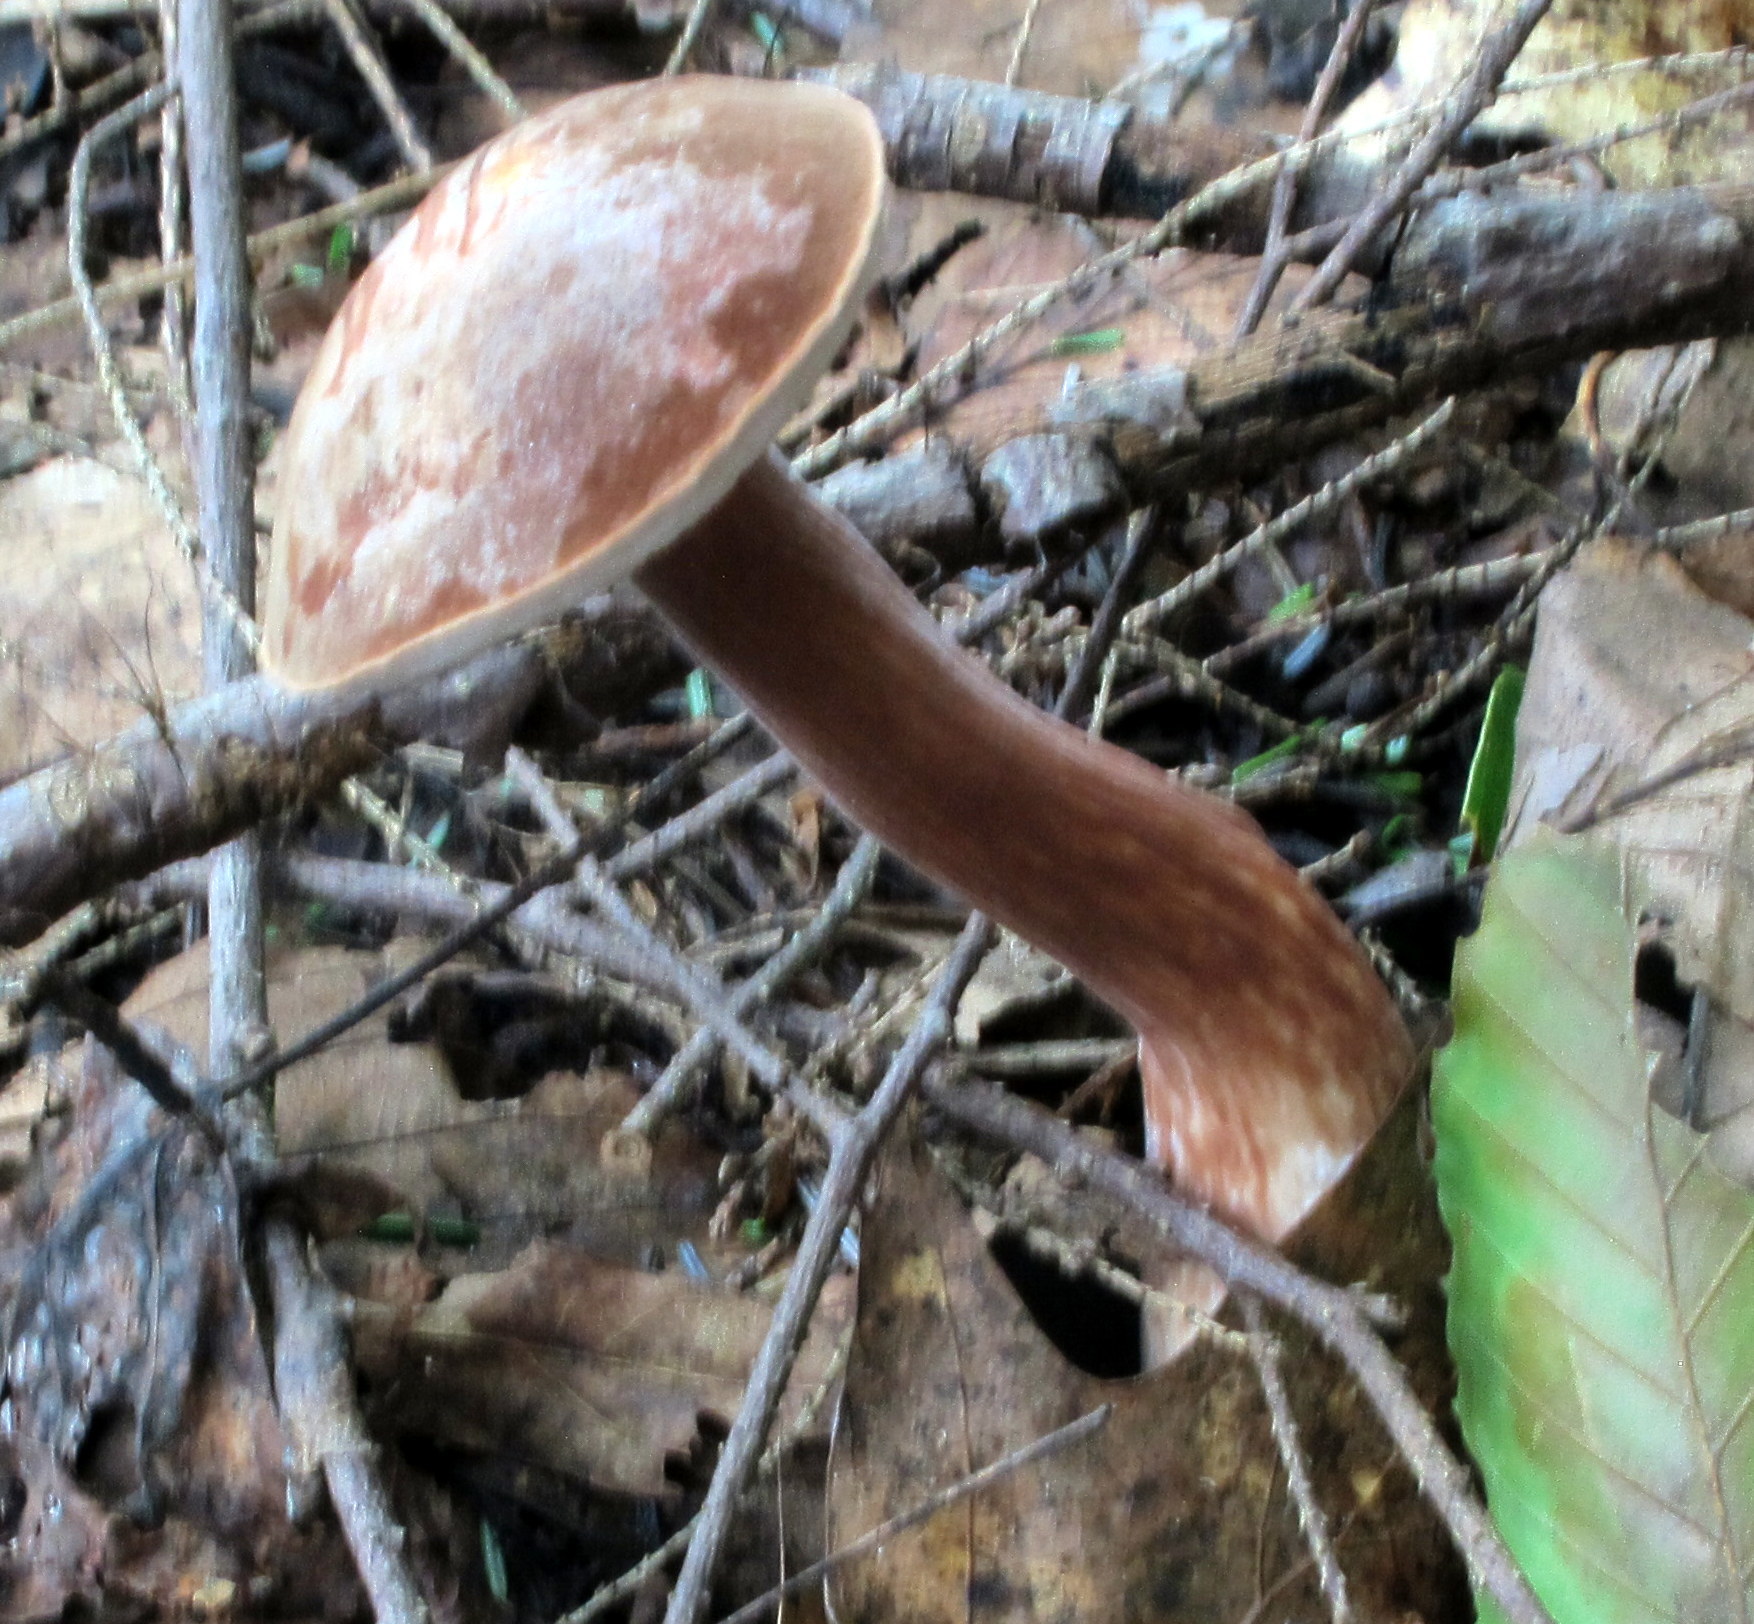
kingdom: Fungi
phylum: Basidiomycota
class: Agaricomycetes
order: Boletales
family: Boletaceae
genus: Austroboletus
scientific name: Austroboletus gracilis
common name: Graceful bolete
